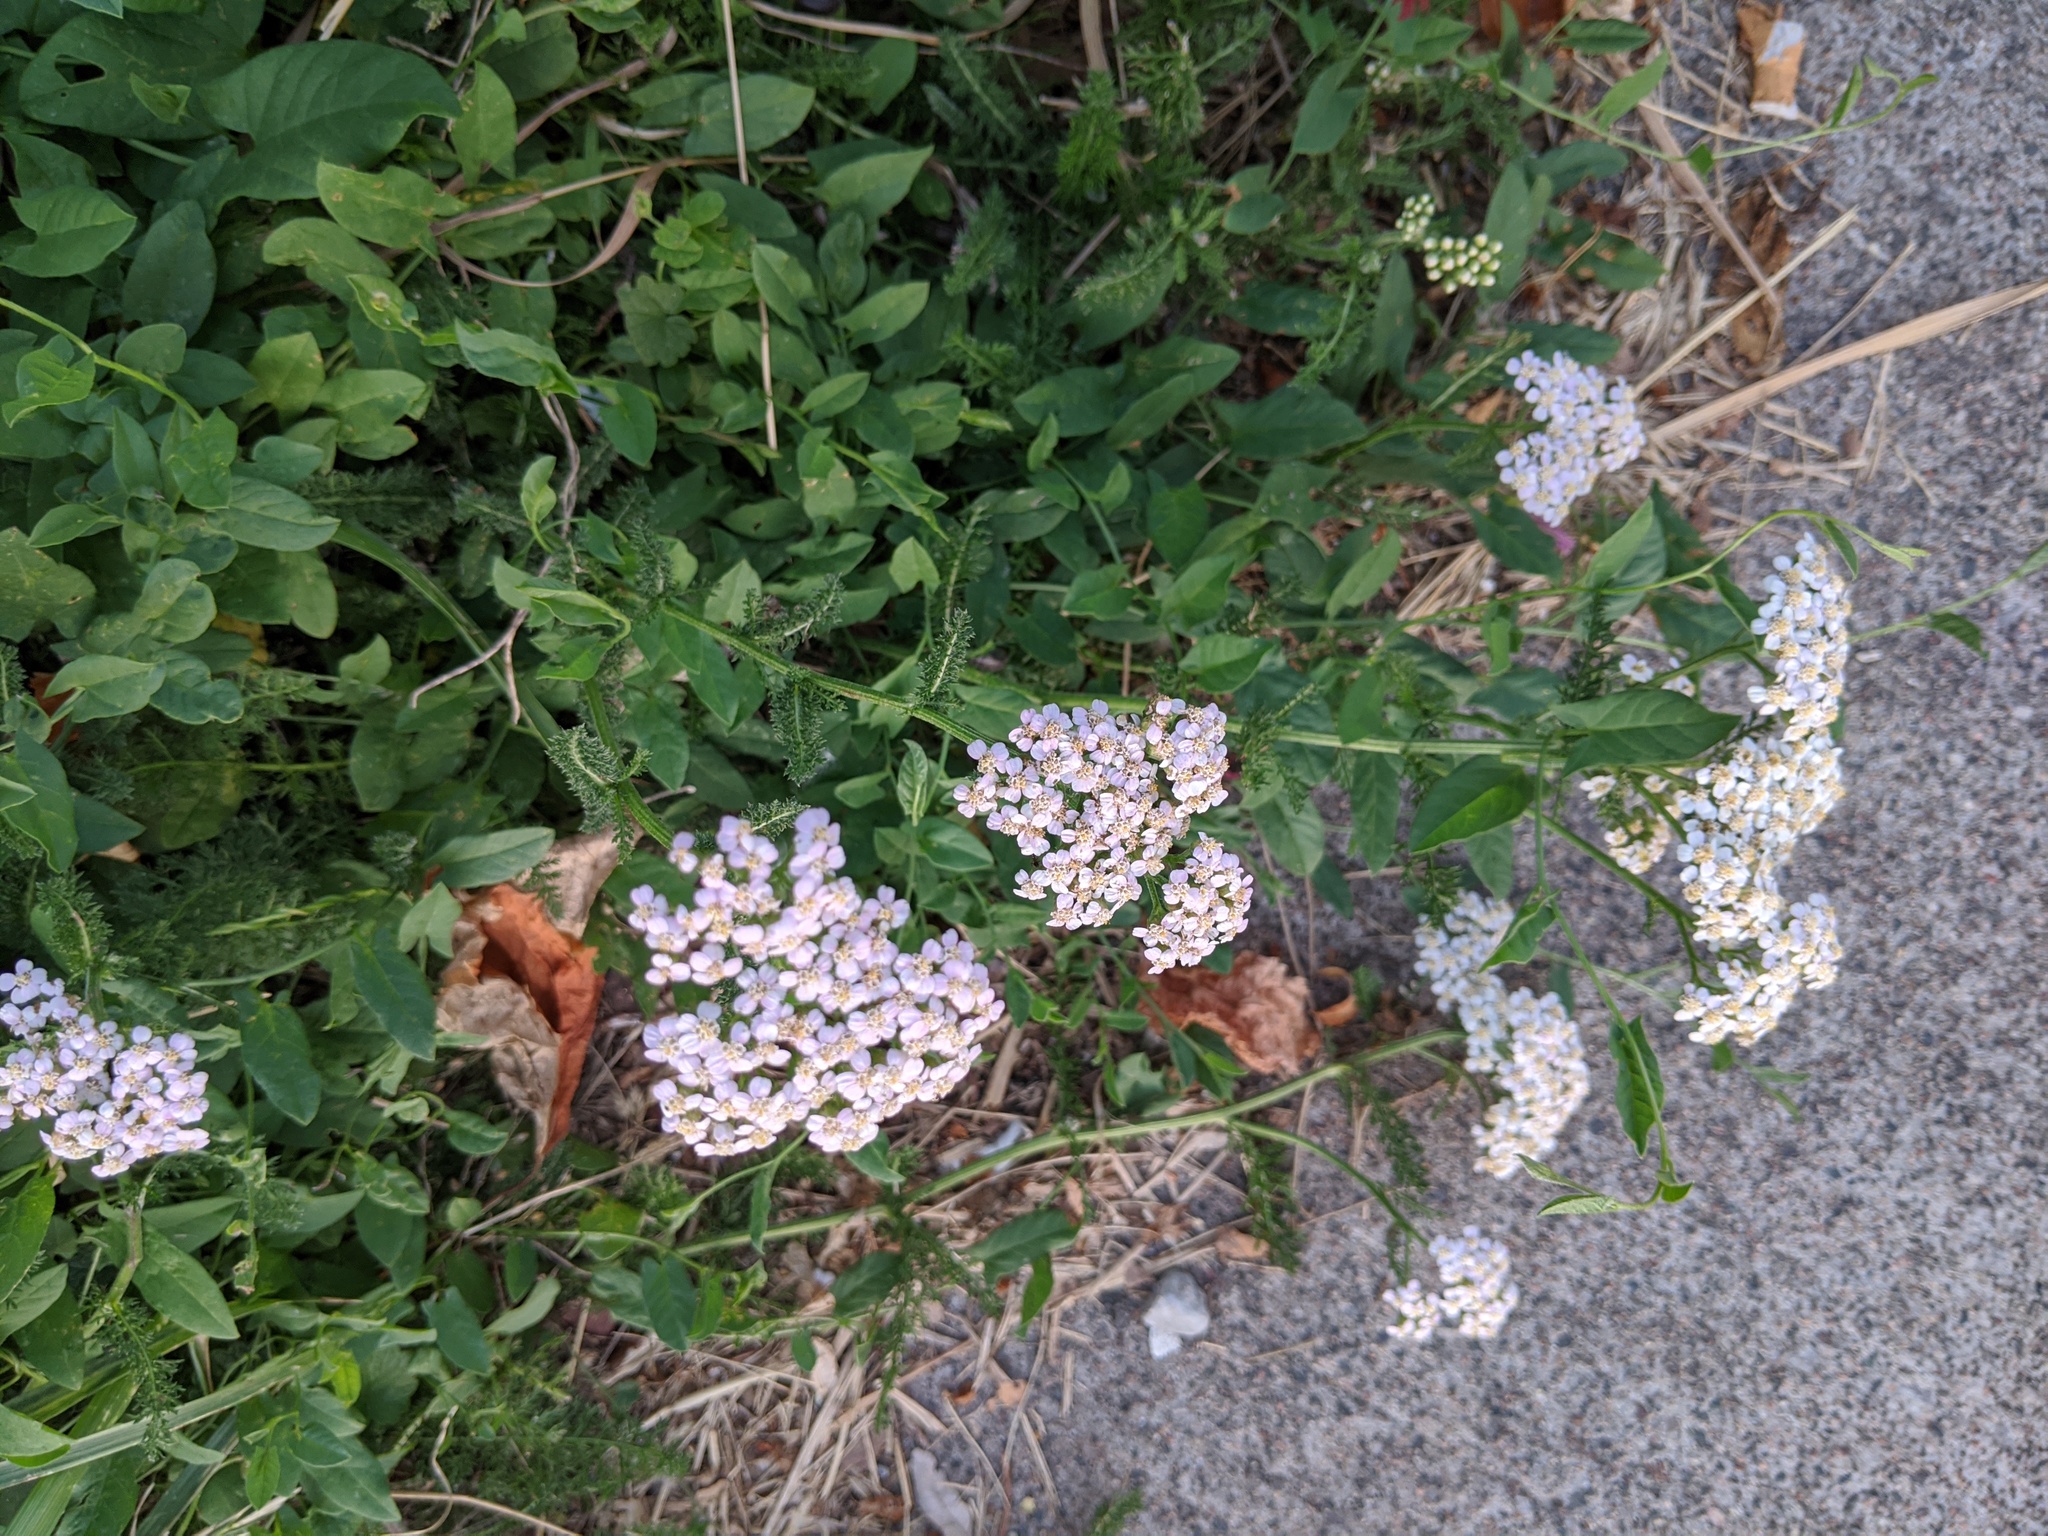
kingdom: Plantae
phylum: Tracheophyta
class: Magnoliopsida
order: Asterales
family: Asteraceae
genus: Achillea
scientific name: Achillea millefolium
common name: Yarrow
